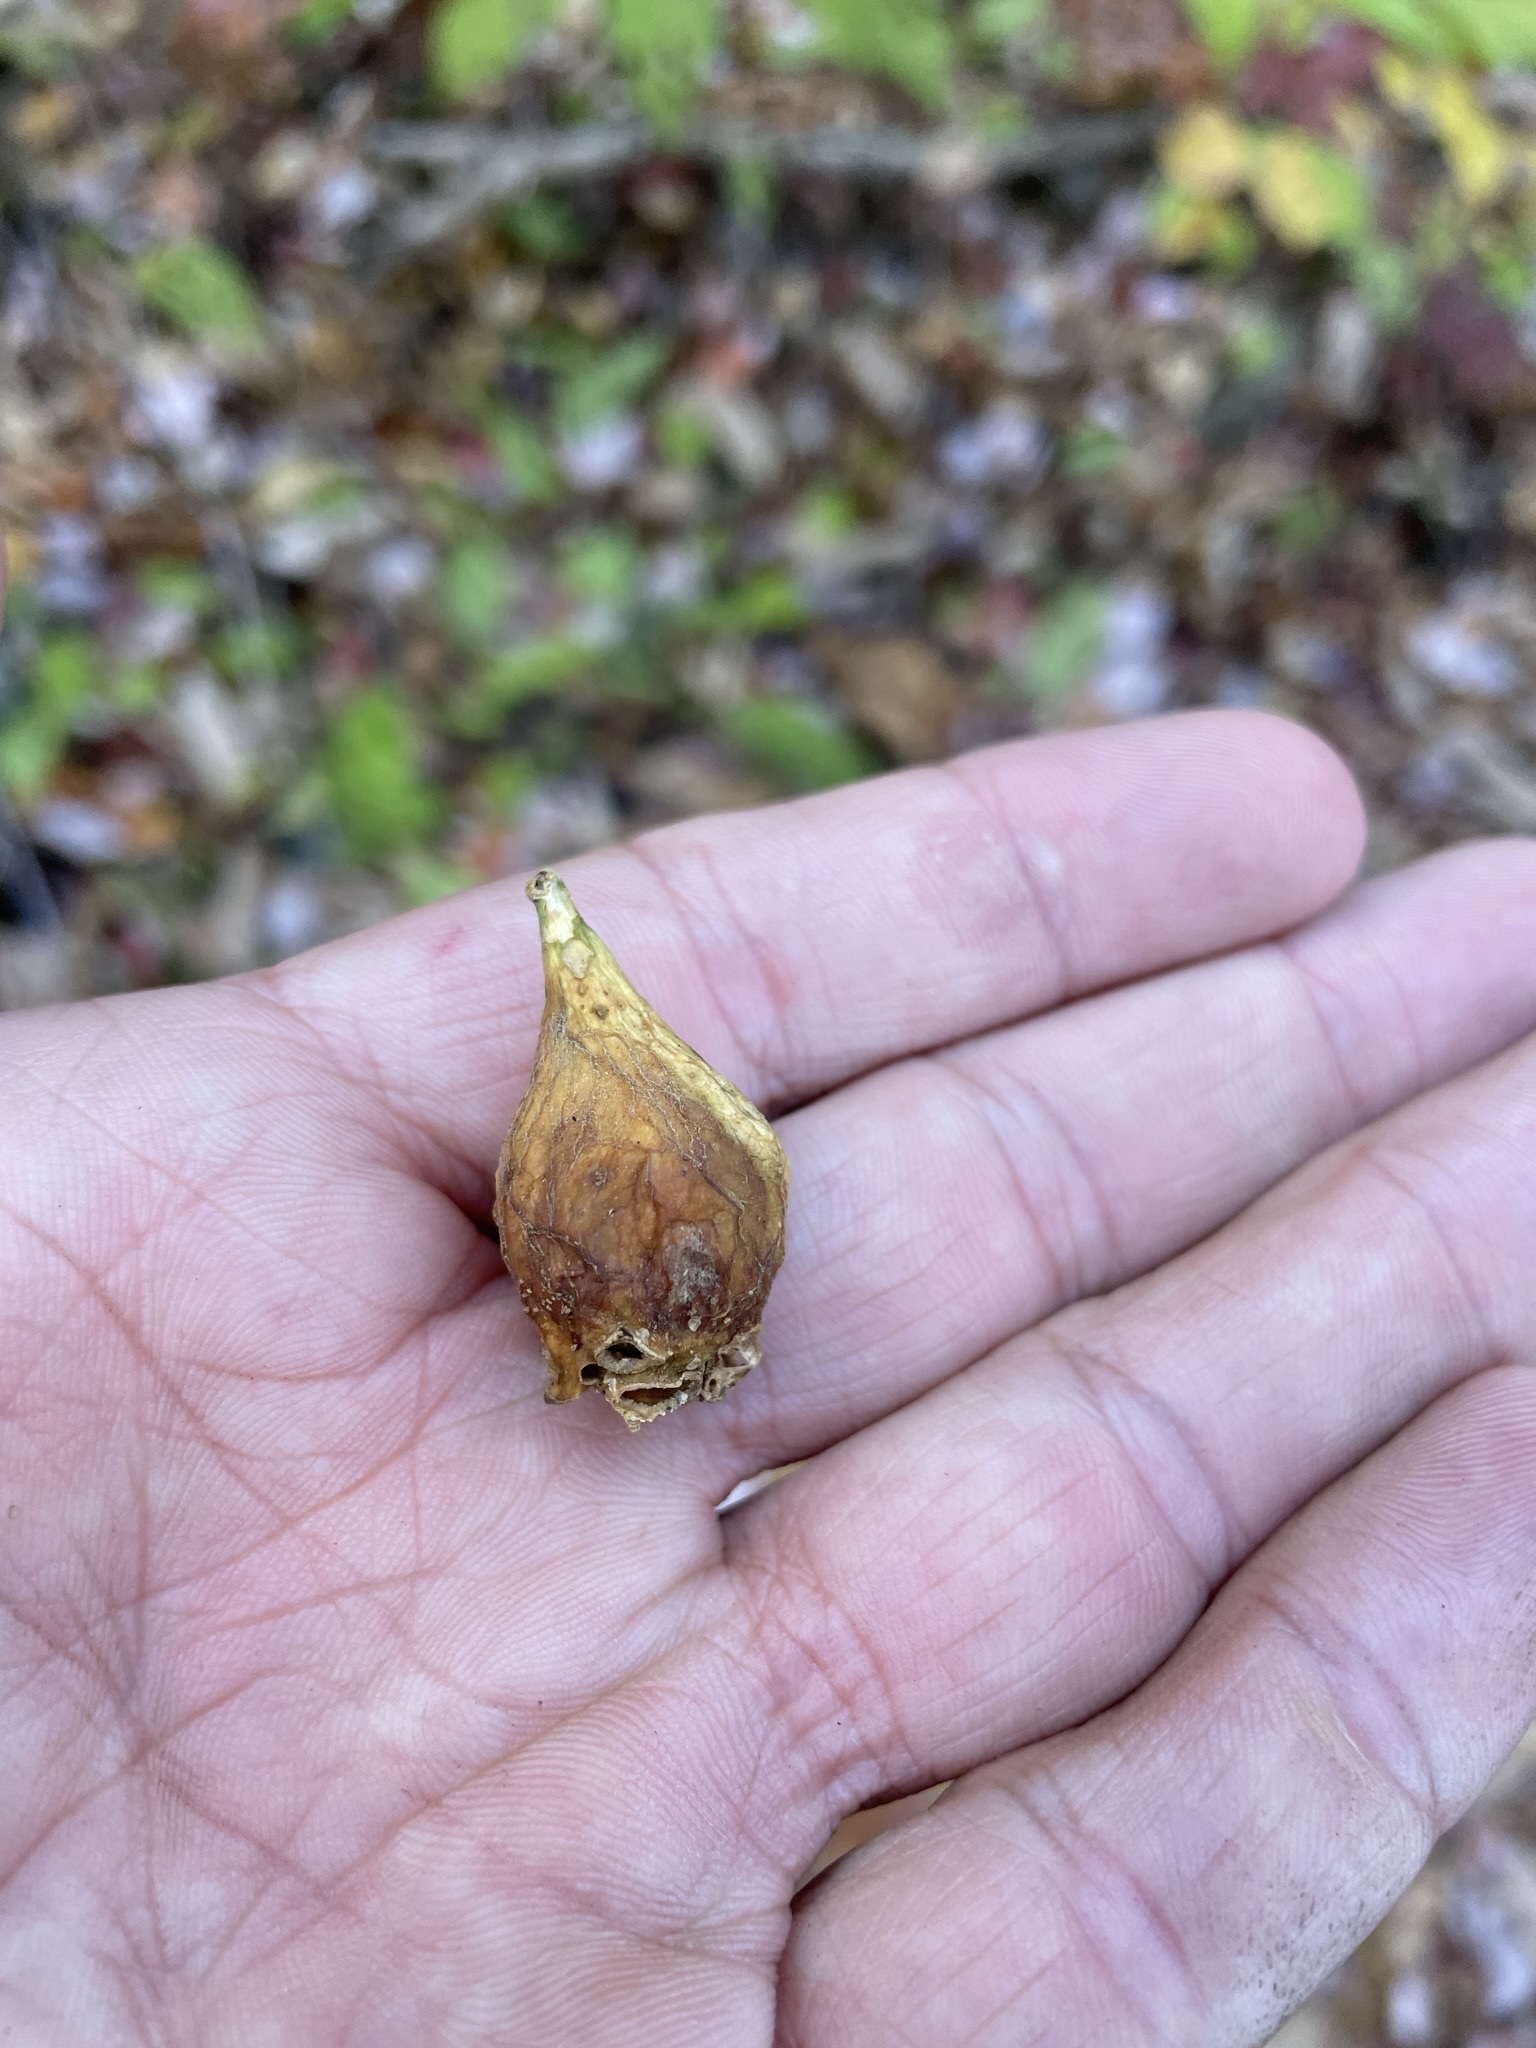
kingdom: Plantae
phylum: Tracheophyta
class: Magnoliopsida
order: Santalales
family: Cervantesiaceae
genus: Pyrularia
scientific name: Pyrularia pubera
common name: Oilnut
